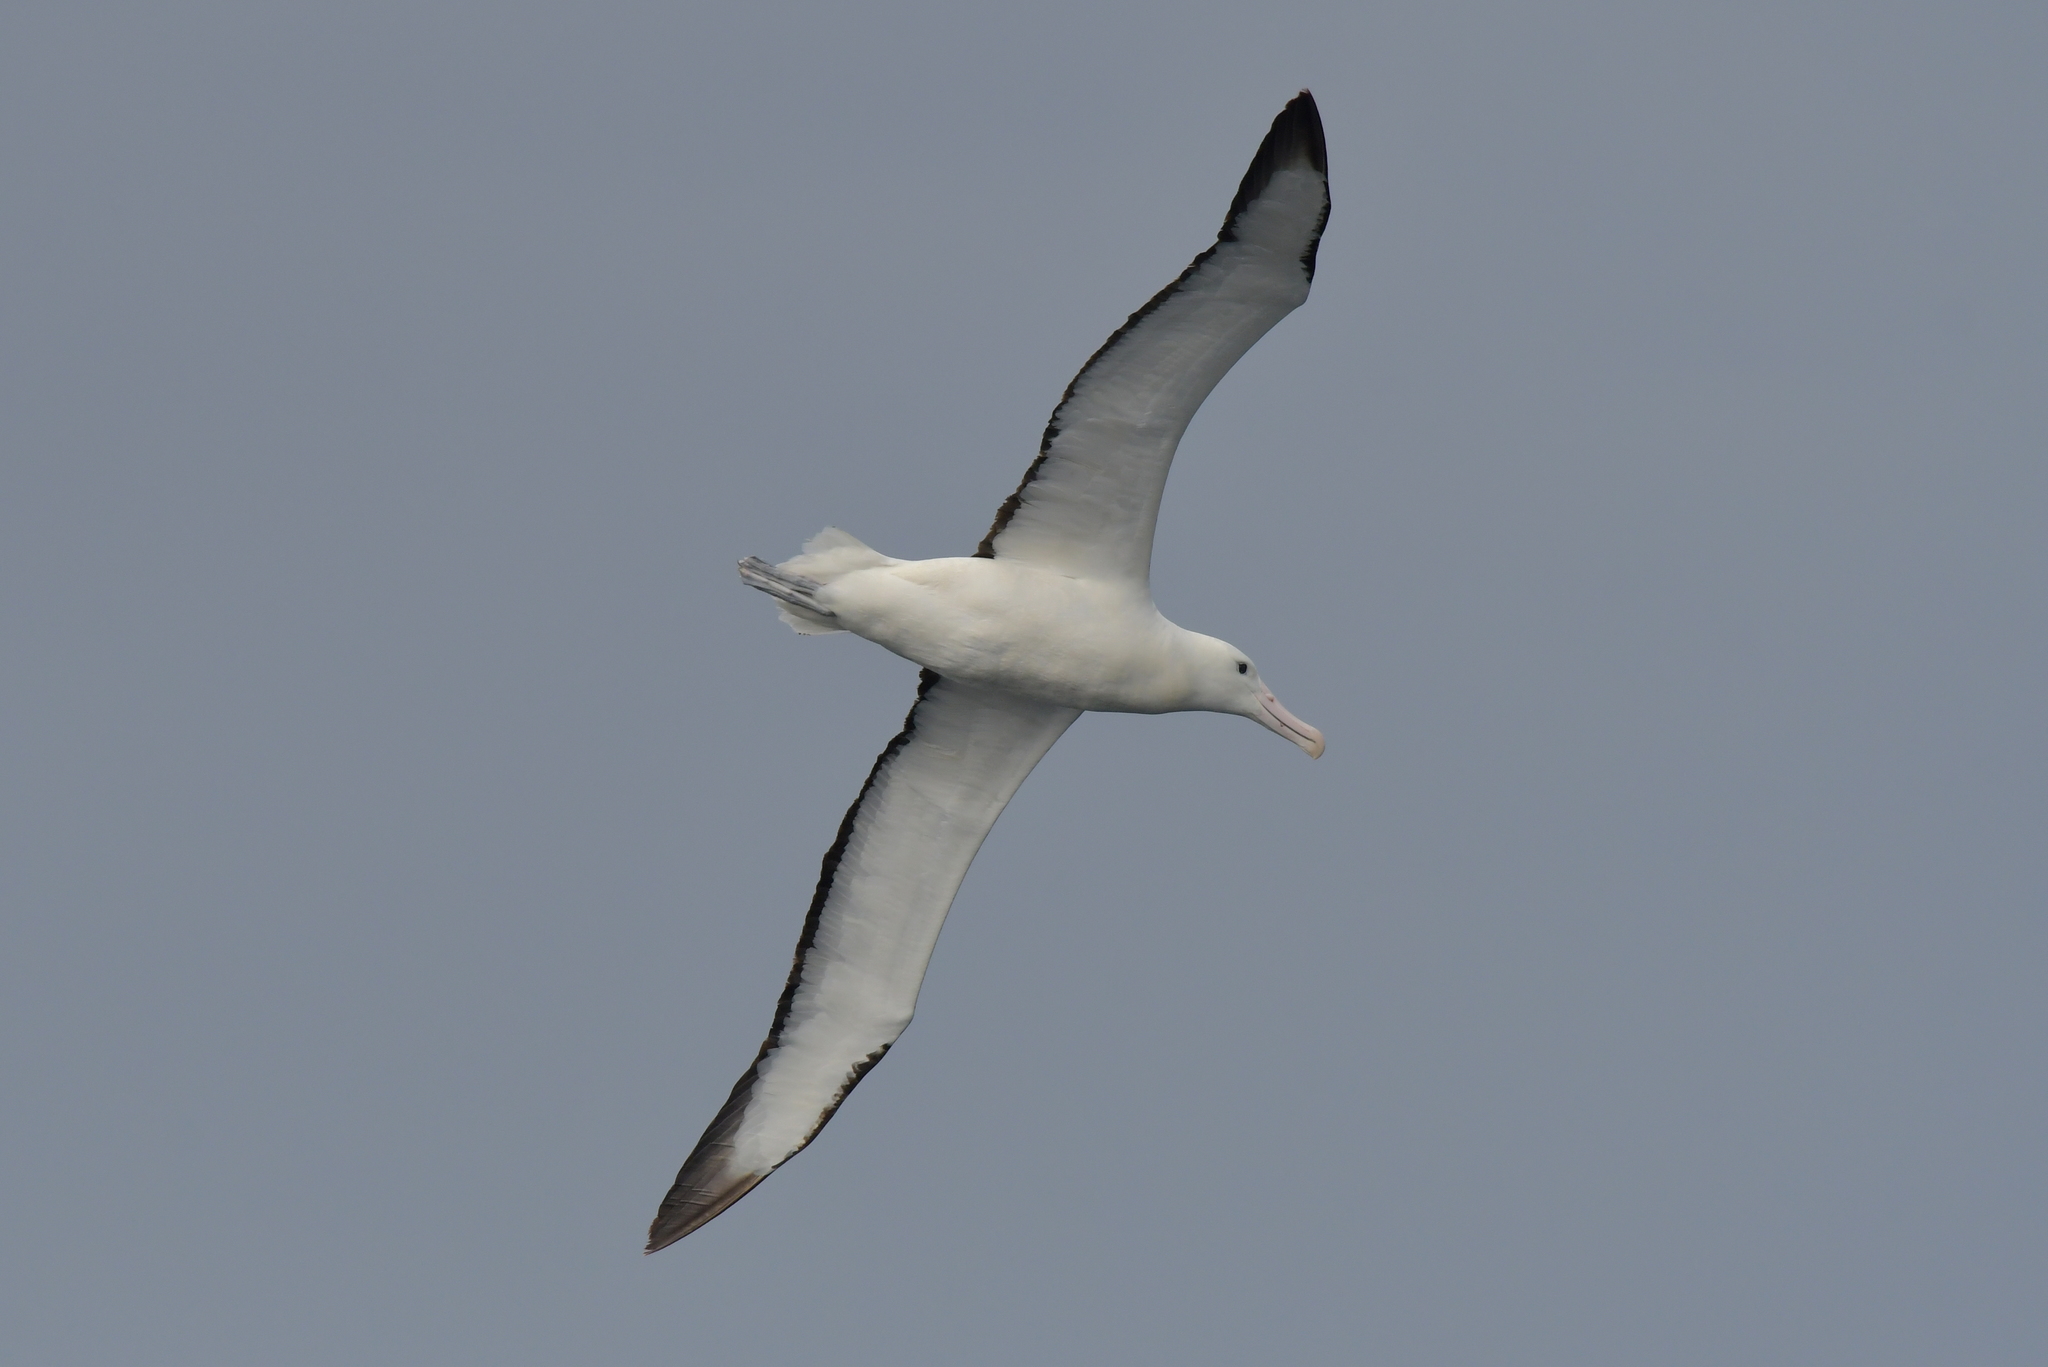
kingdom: Animalia
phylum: Chordata
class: Aves
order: Procellariiformes
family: Diomedeidae
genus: Diomedea
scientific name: Diomedea sanfordi
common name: Northern royal albatross
